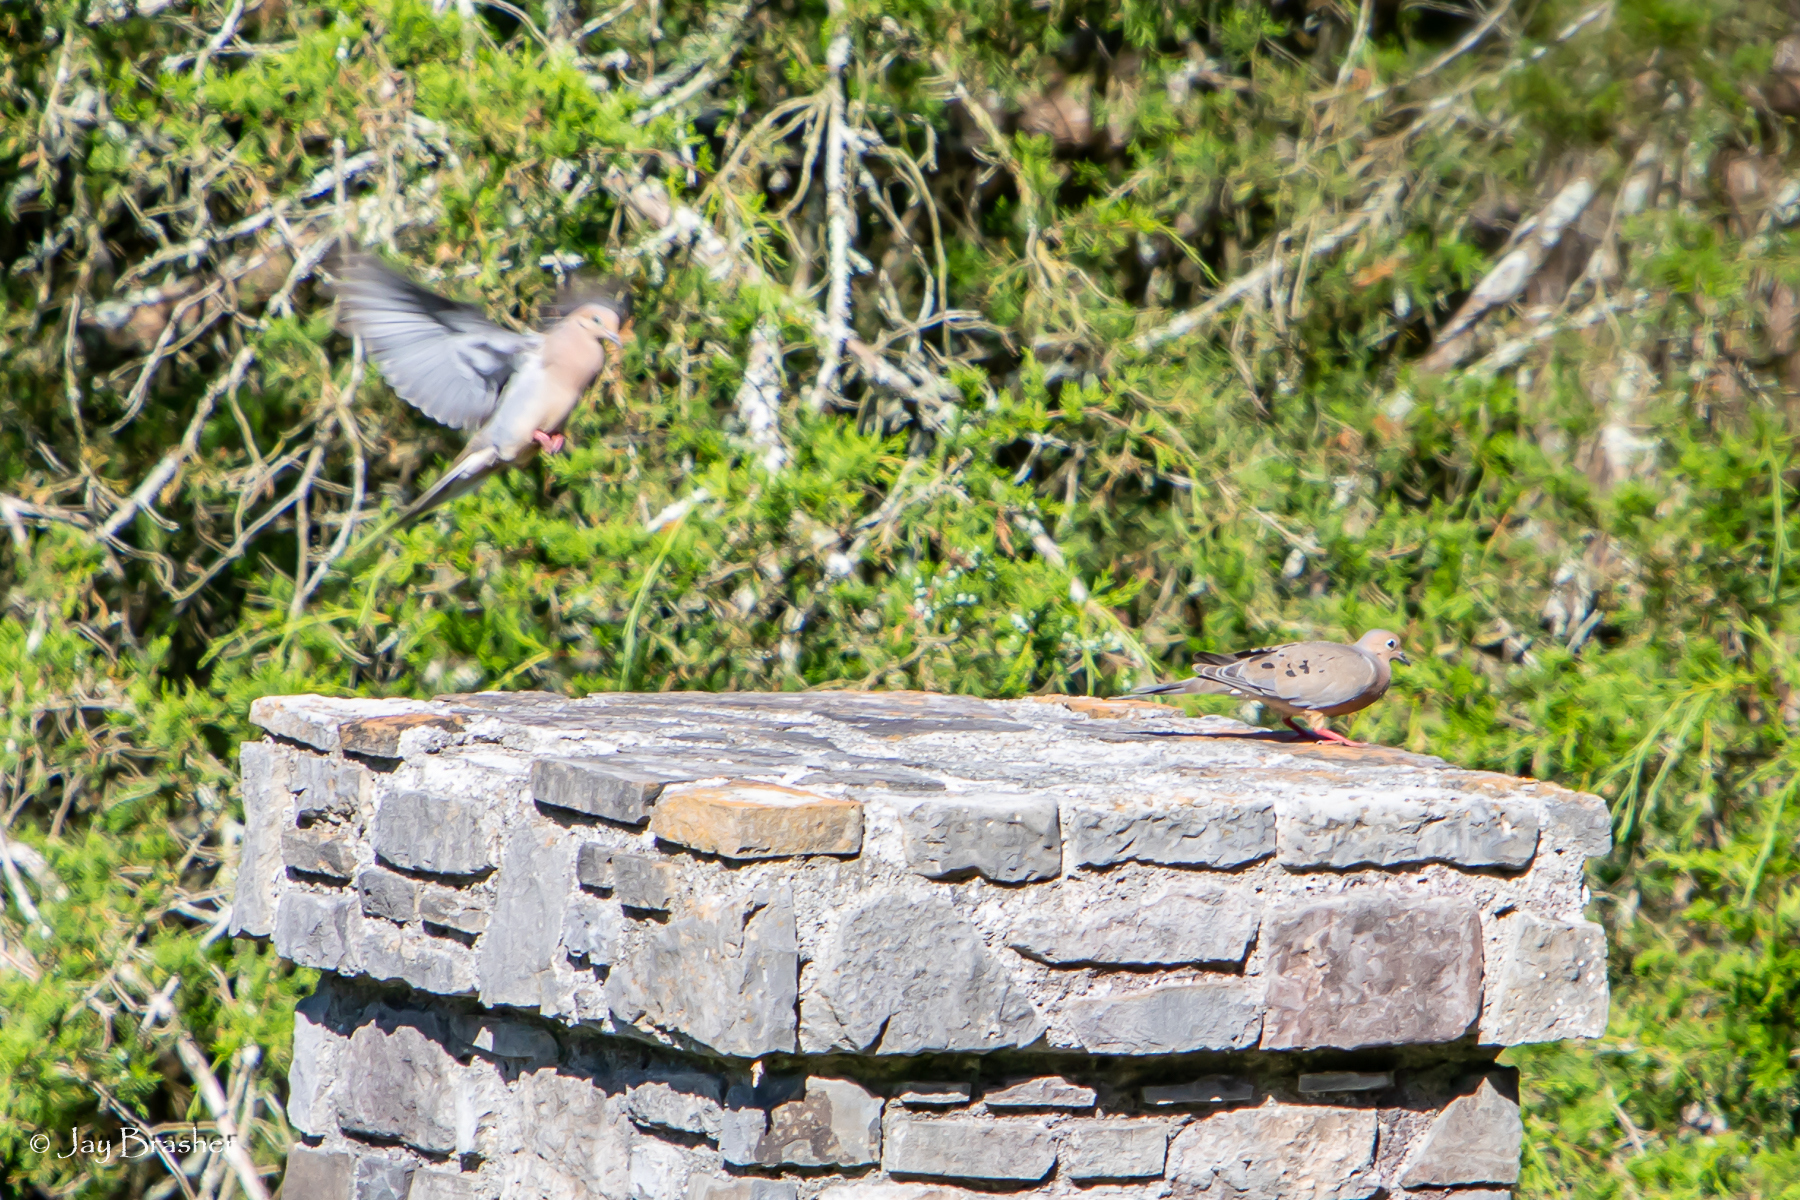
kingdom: Animalia
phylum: Chordata
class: Aves
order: Columbiformes
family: Columbidae
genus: Zenaida
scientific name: Zenaida macroura
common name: Mourning dove
